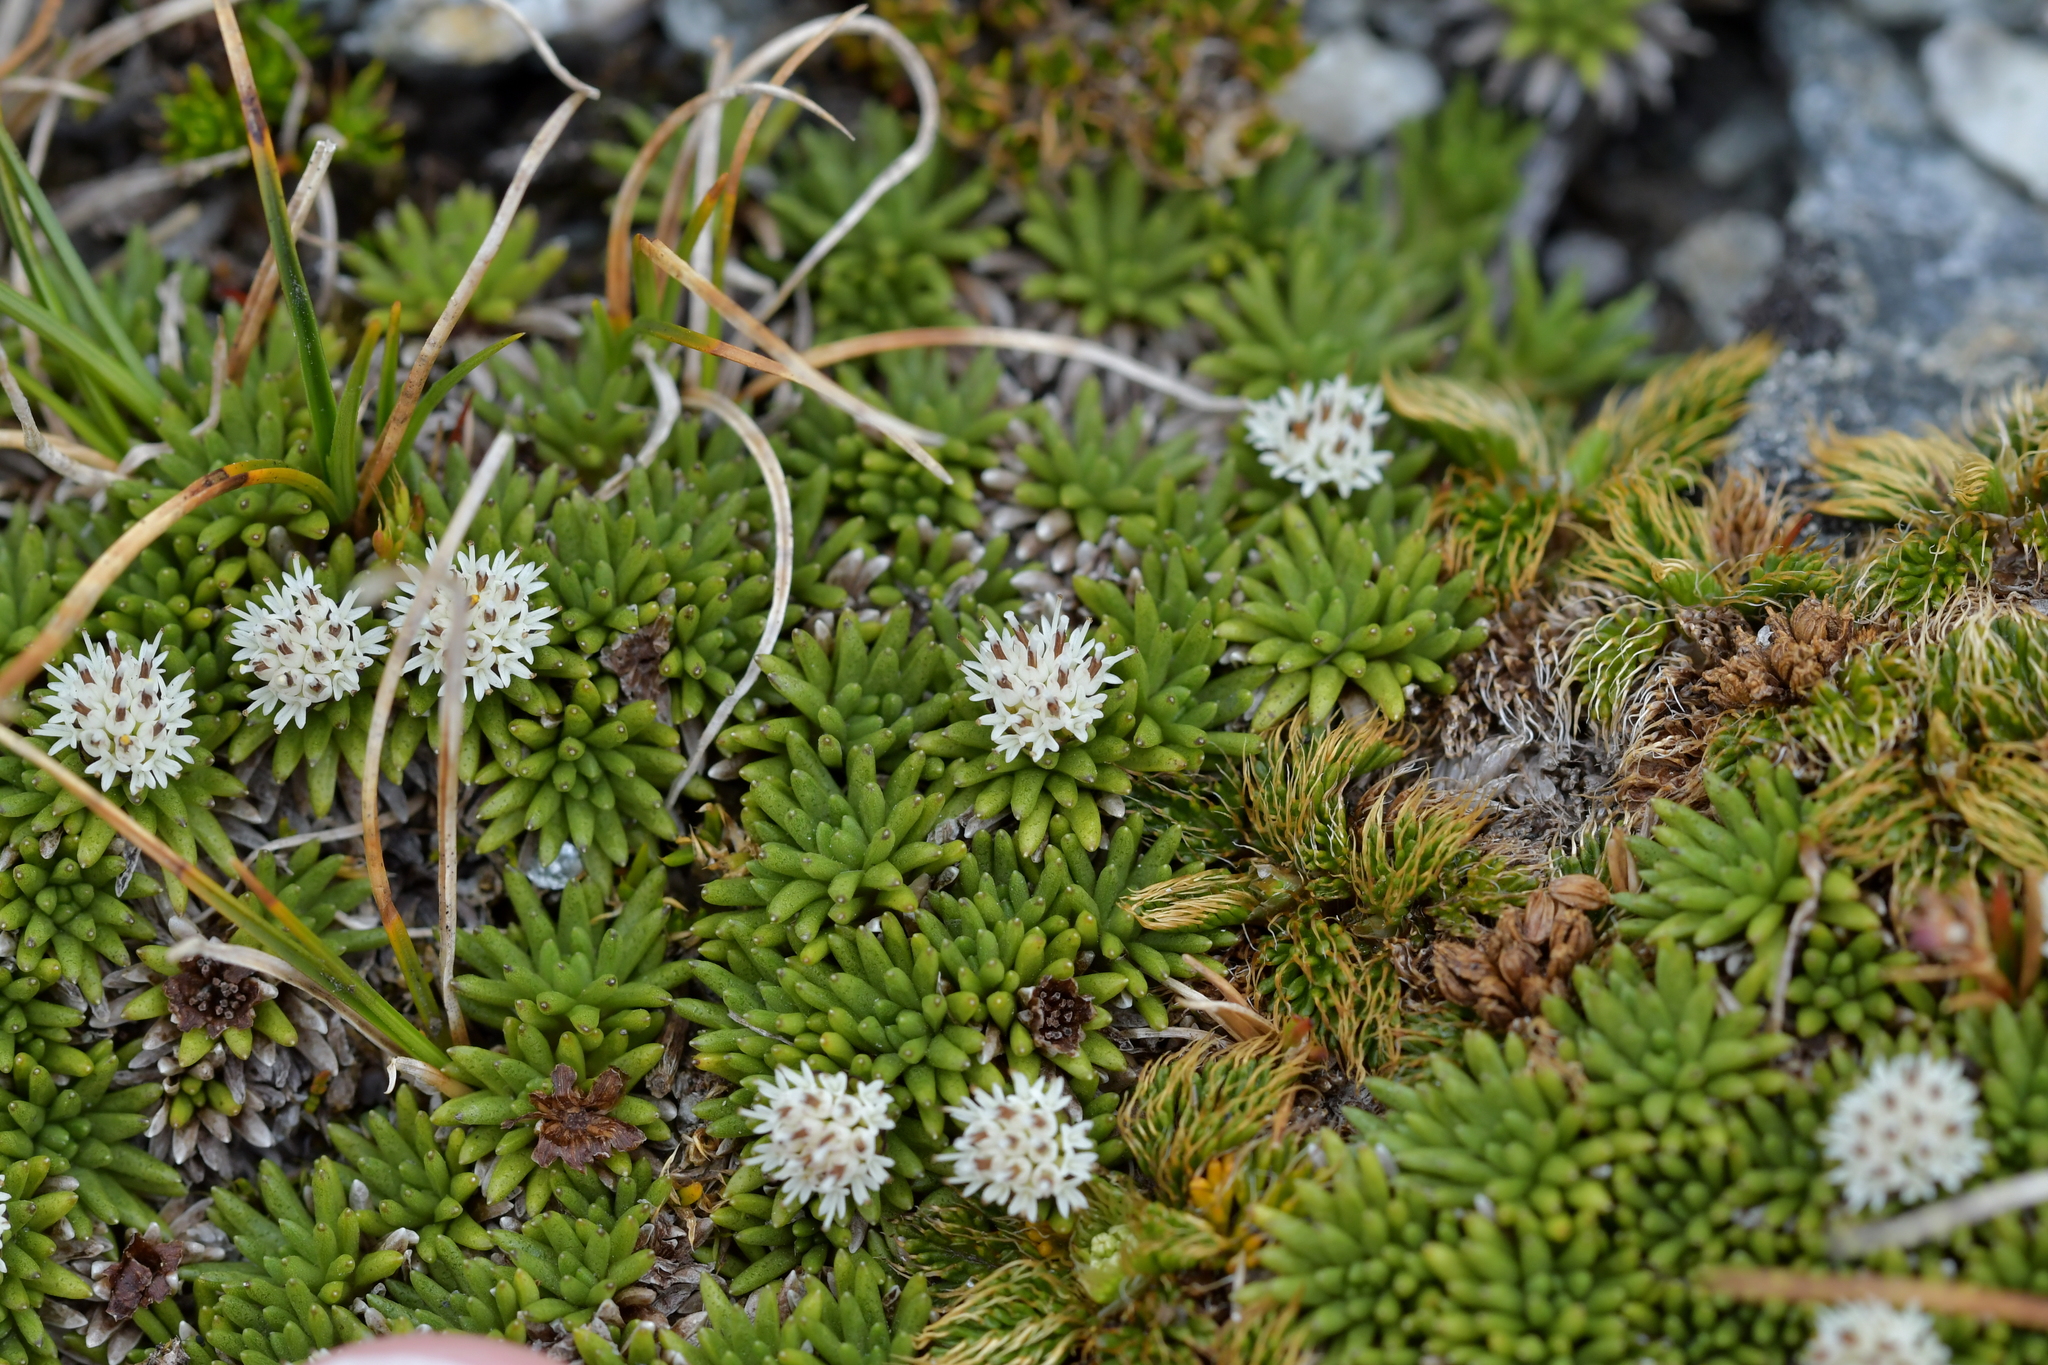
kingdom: Plantae
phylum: Tracheophyta
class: Magnoliopsida
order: Asterales
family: Asteraceae
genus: Abrotanella
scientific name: Abrotanella inconspicua
